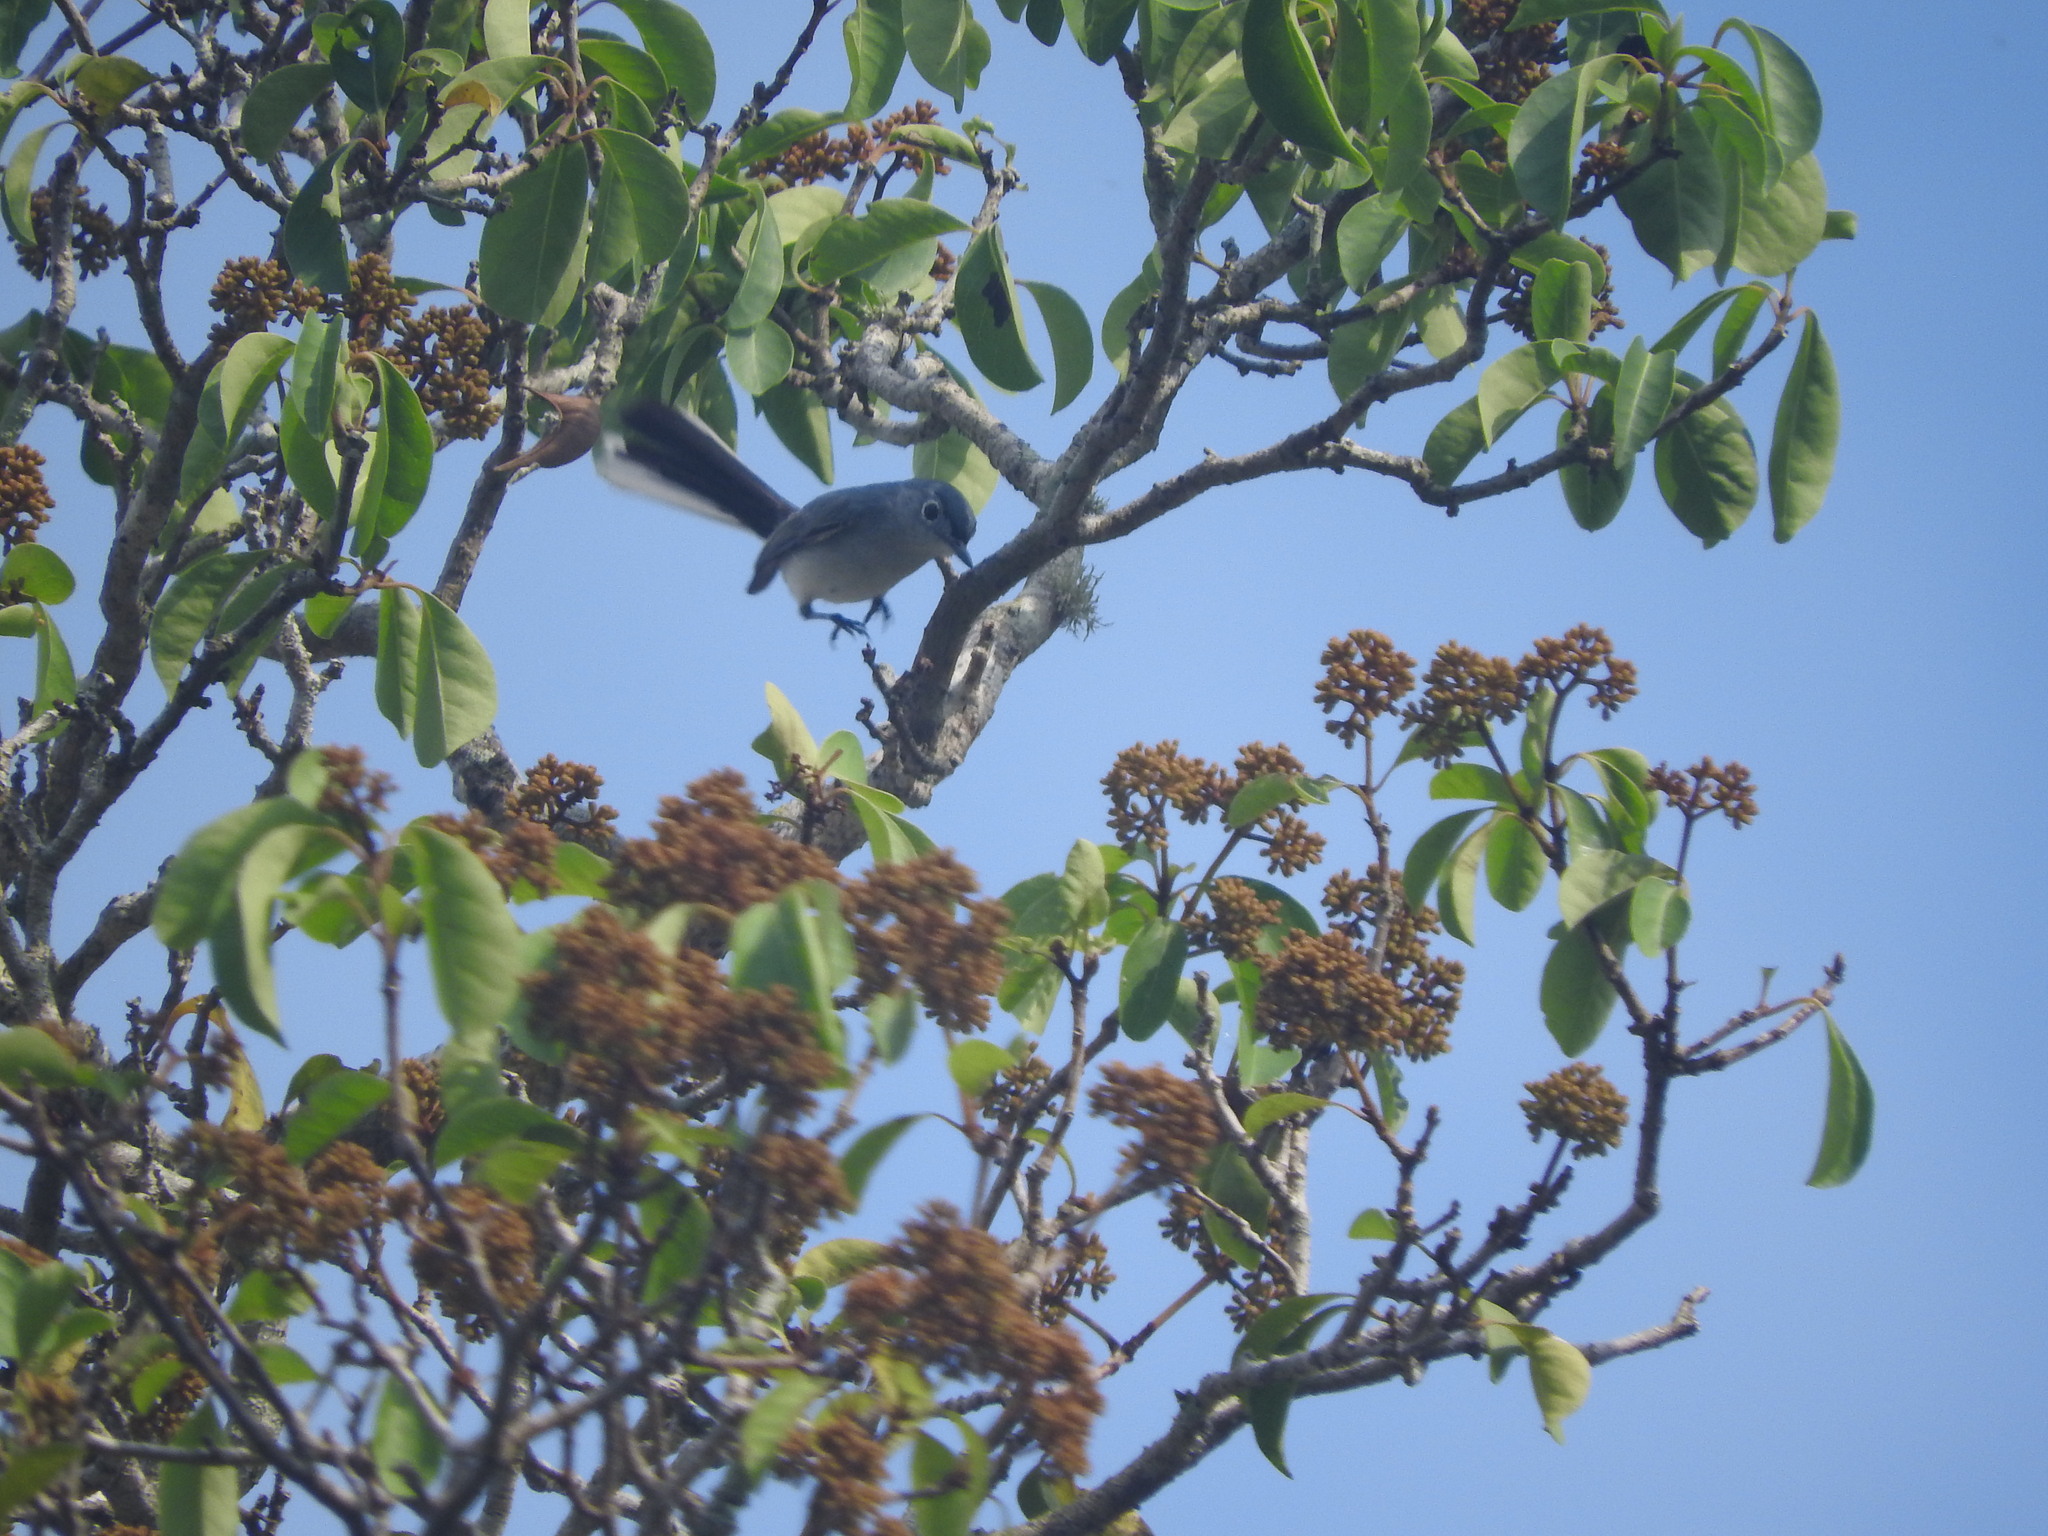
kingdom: Animalia
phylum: Chordata
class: Aves
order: Passeriformes
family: Polioptilidae
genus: Polioptila
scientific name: Polioptila caerulea
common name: Blue-gray gnatcatcher
